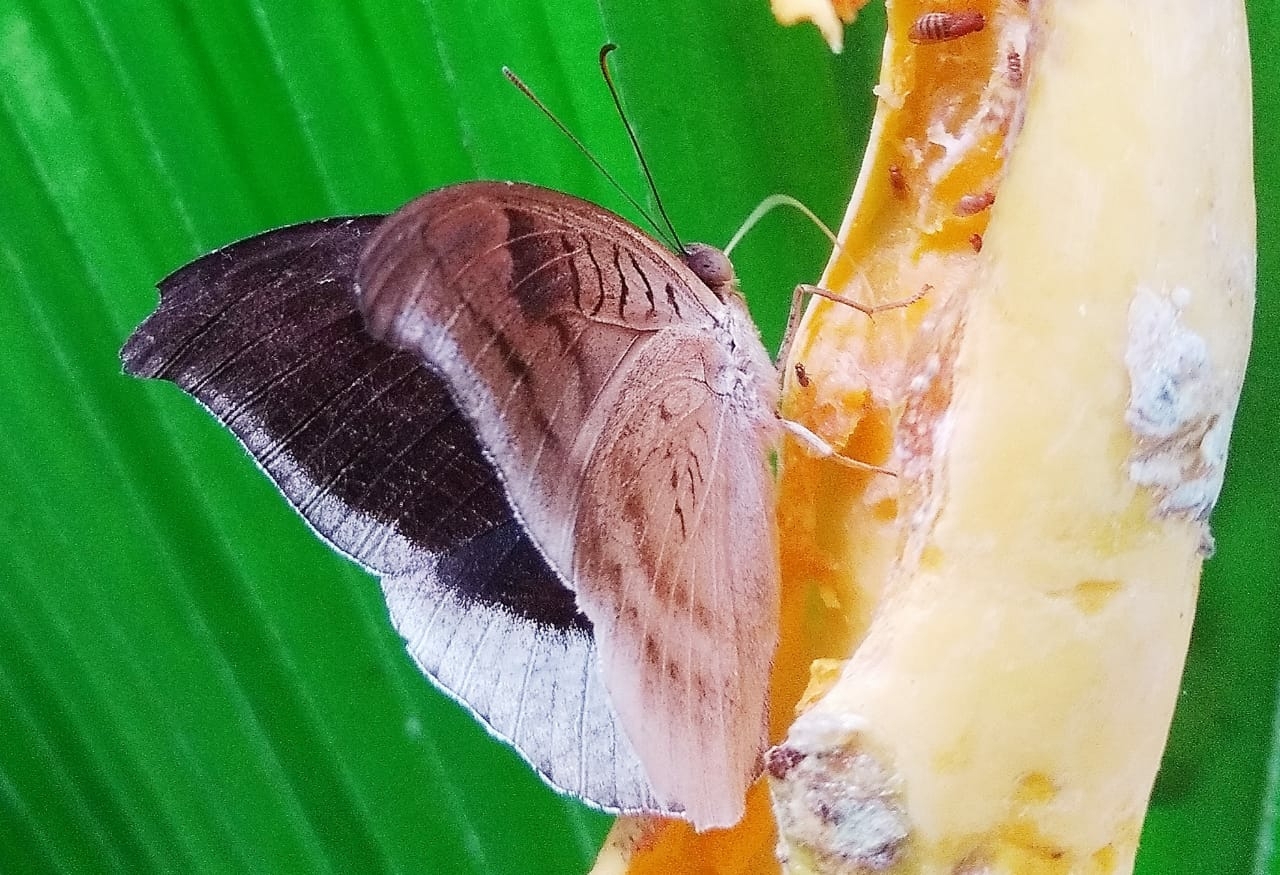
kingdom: Animalia
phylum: Arthropoda
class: Insecta
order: Lepidoptera
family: Nymphalidae
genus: Tanaecia
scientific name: Tanaecia lepidea
